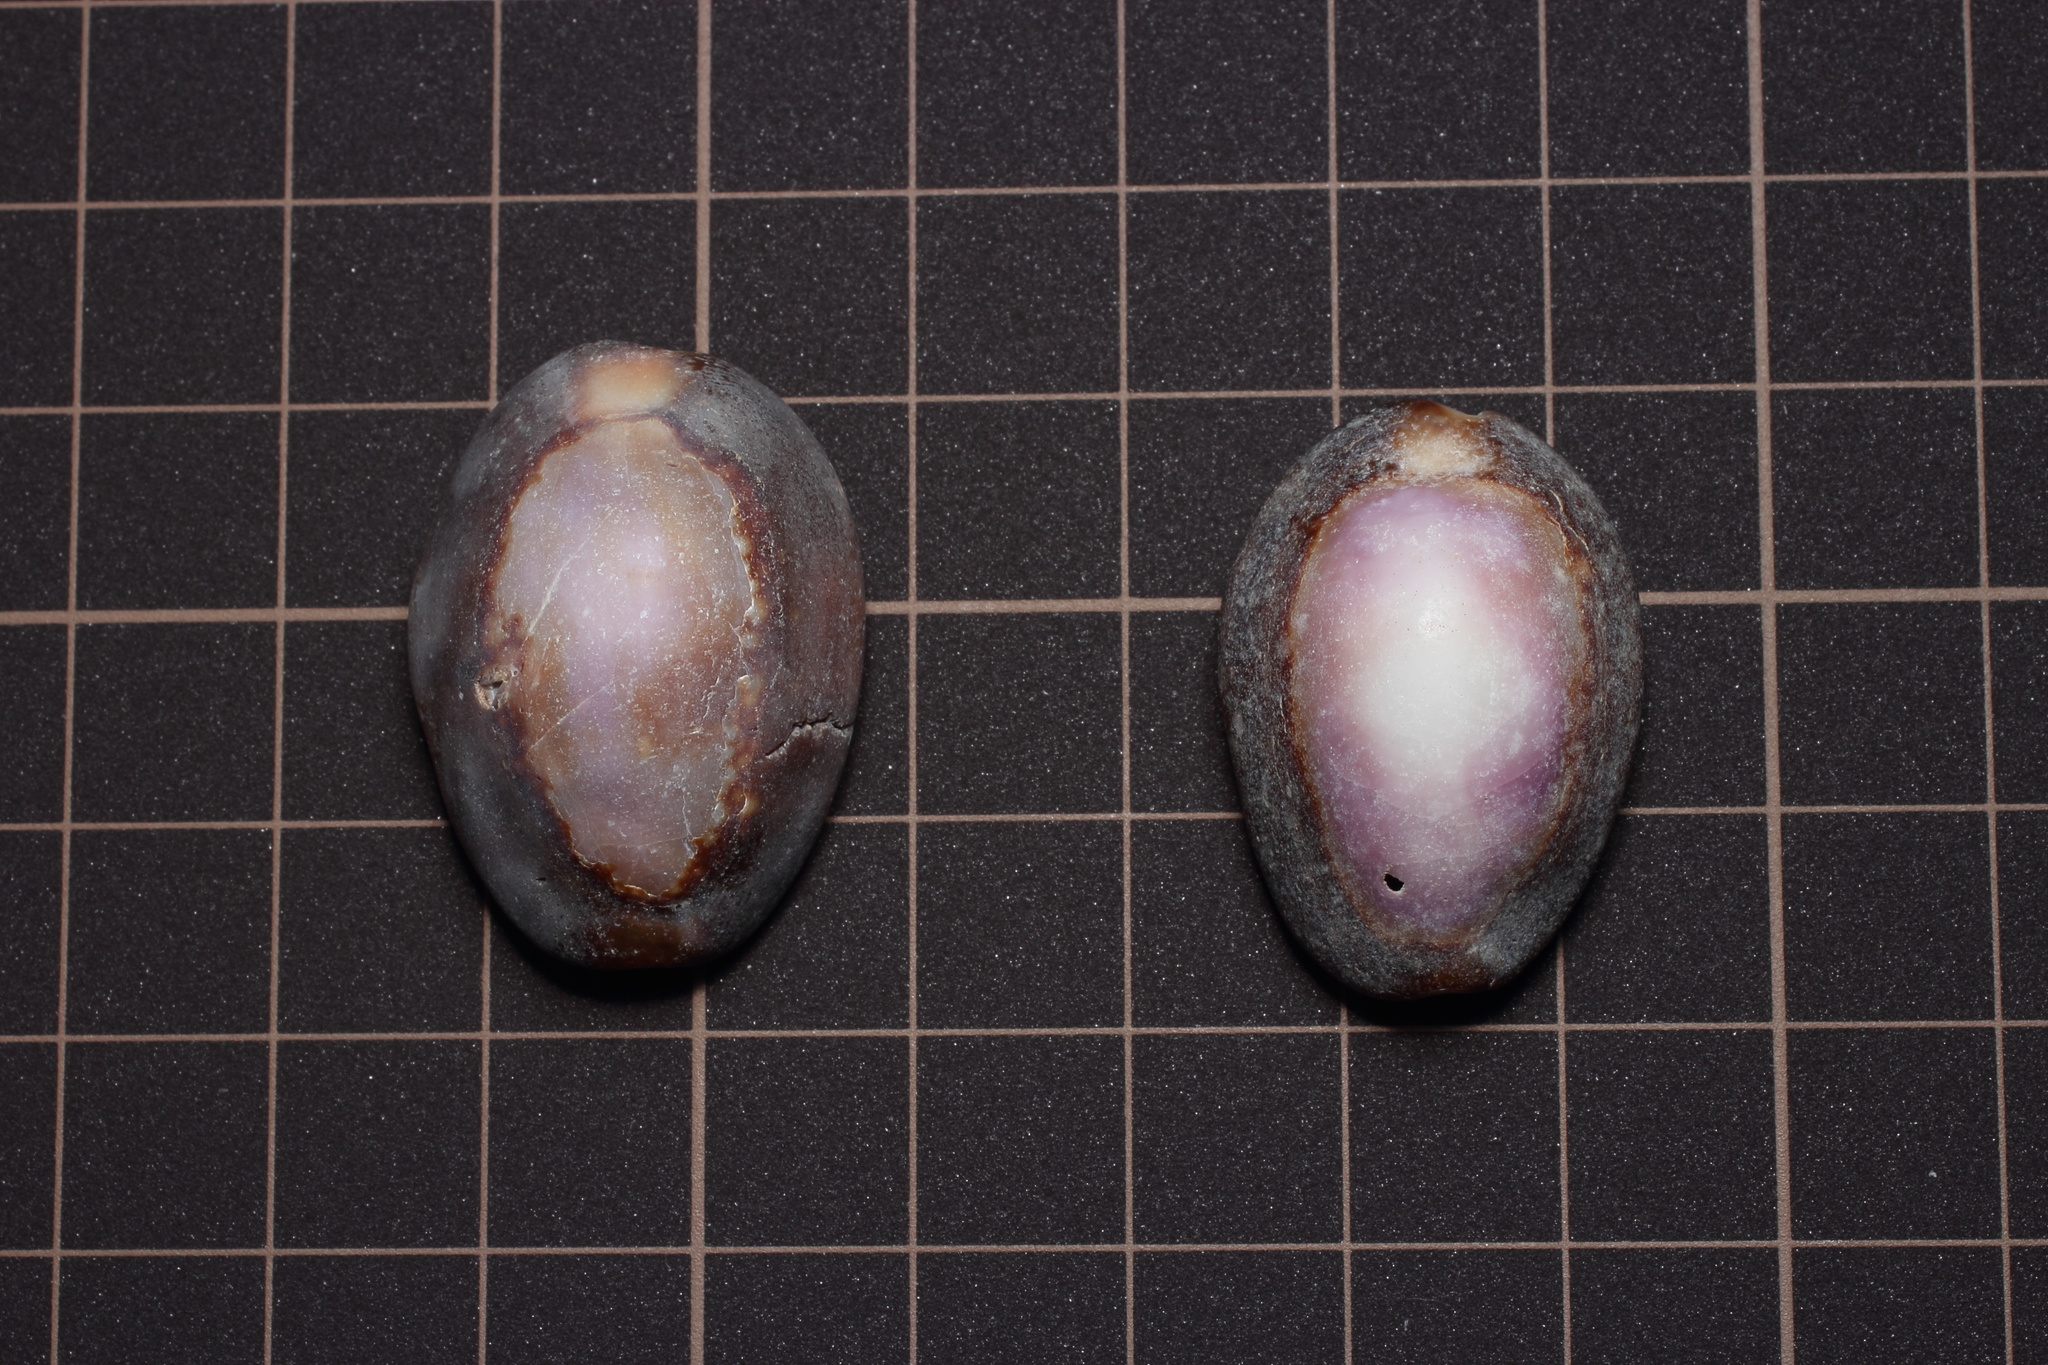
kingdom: Animalia
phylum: Mollusca
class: Gastropoda
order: Littorinimorpha
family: Cypraeidae
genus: Monetaria
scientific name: Monetaria caputserpentis
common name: Serpent's head cowrie
